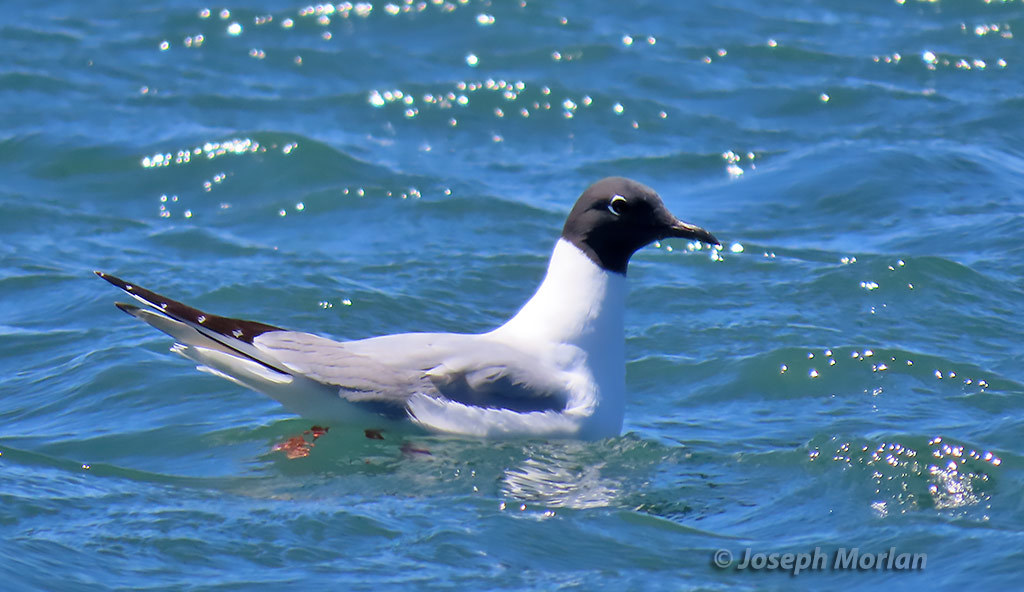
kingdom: Animalia
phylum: Chordata
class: Aves
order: Charadriiformes
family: Laridae
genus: Chroicocephalus
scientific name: Chroicocephalus philadelphia
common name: Bonaparte's gull
